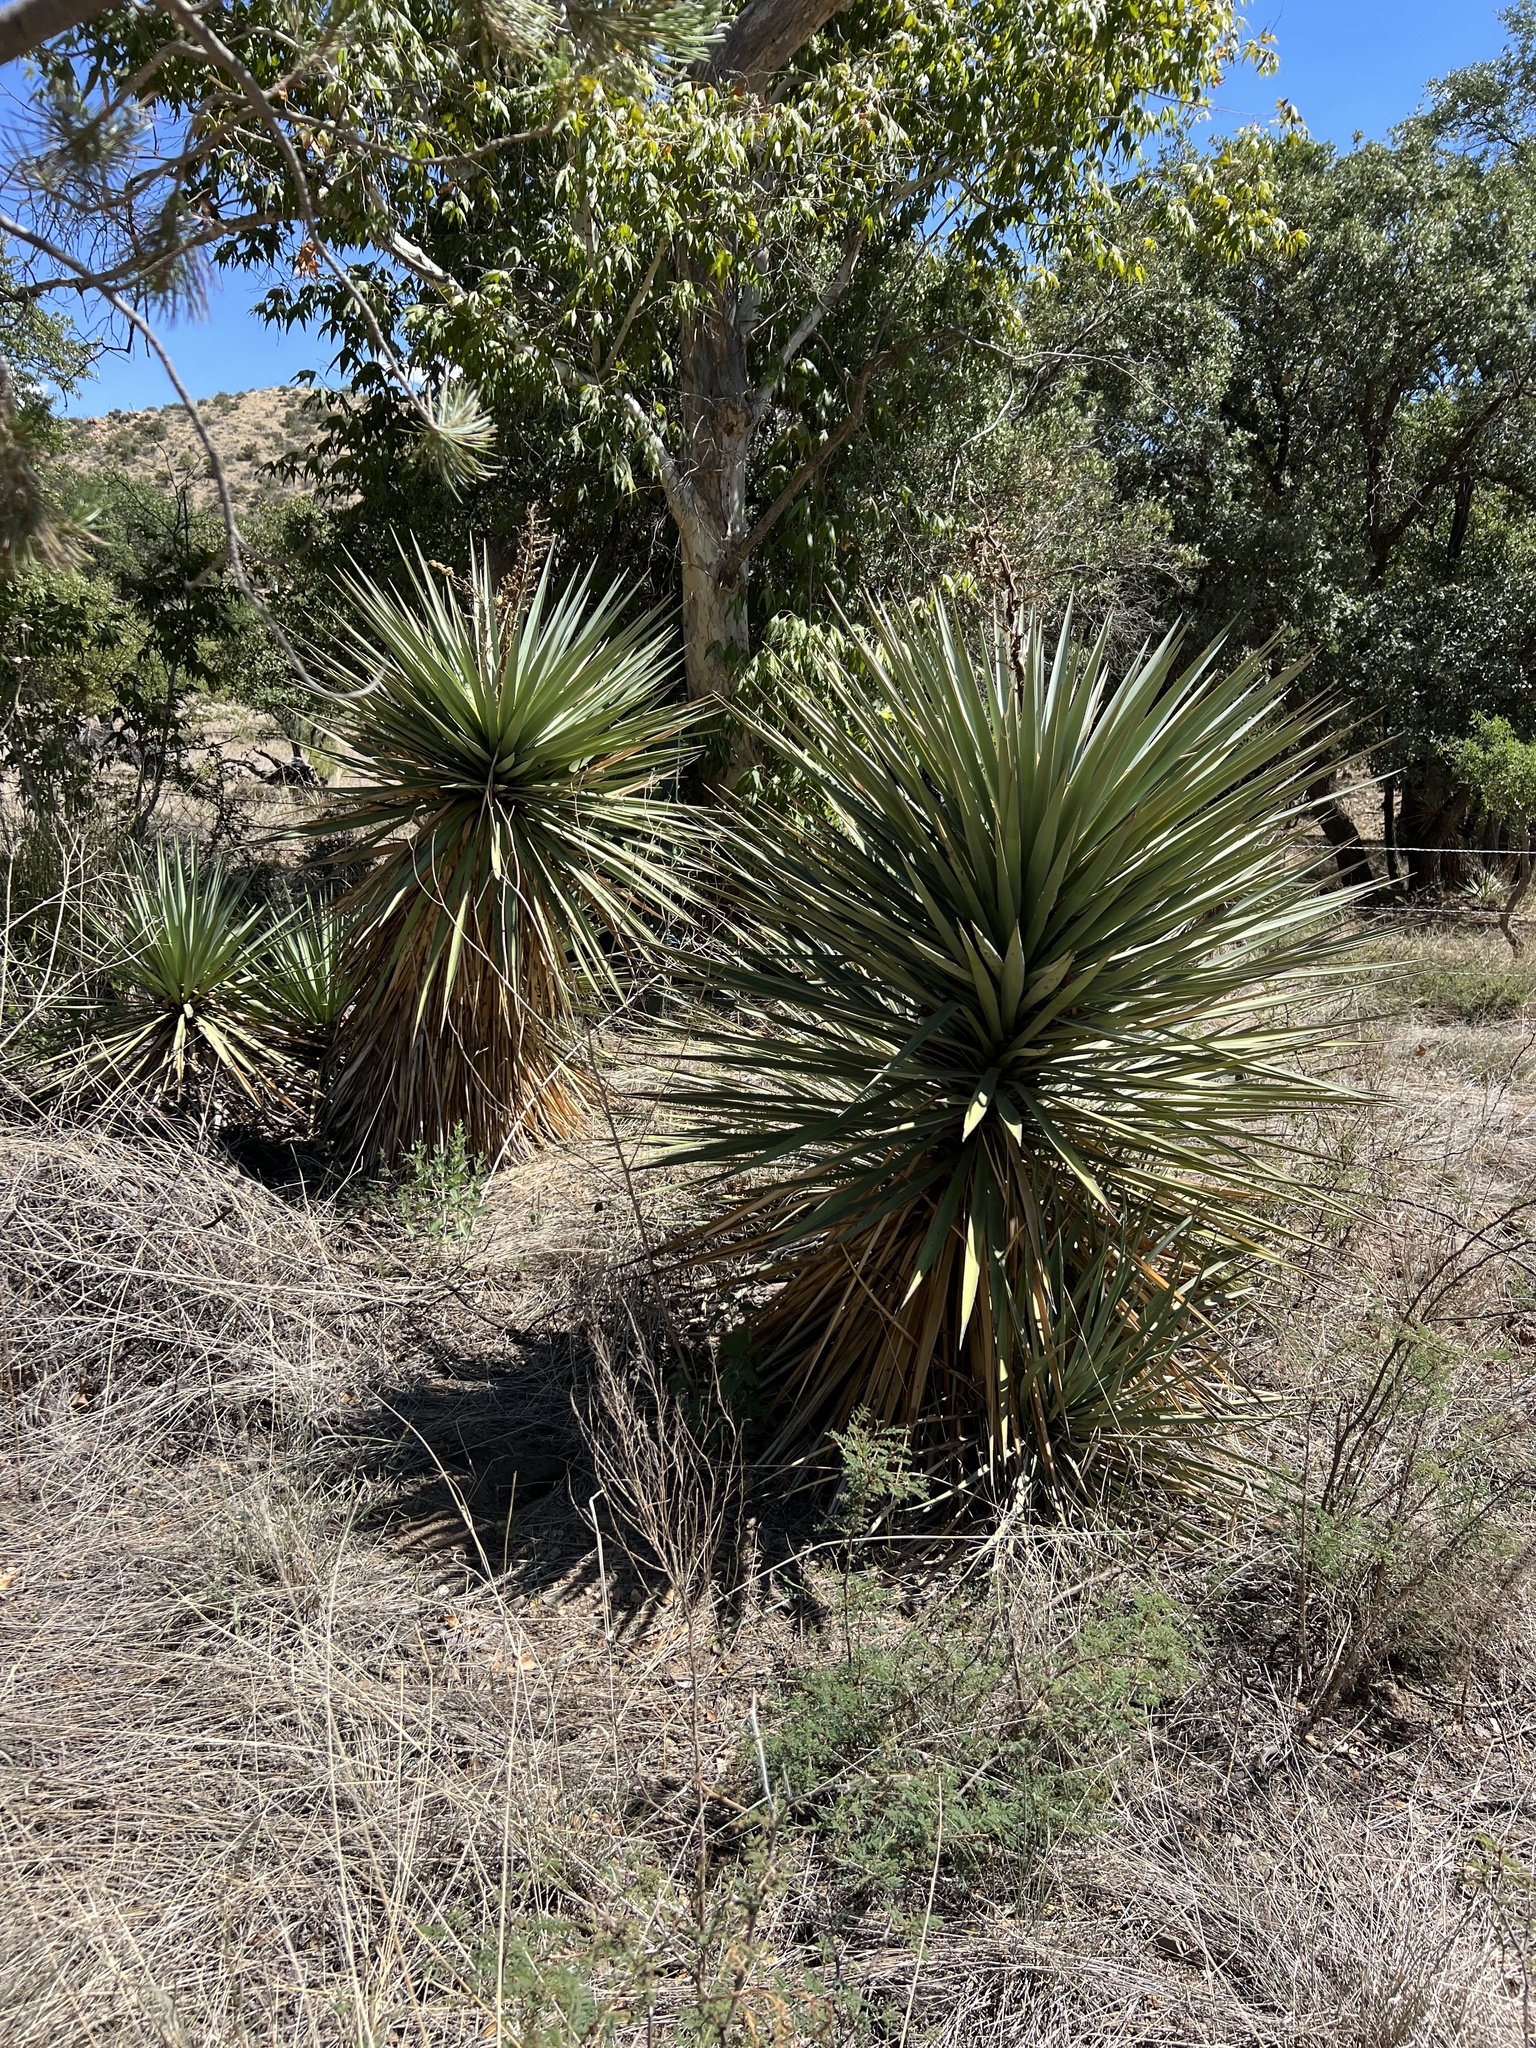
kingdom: Plantae
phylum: Tracheophyta
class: Liliopsida
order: Asparagales
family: Asparagaceae
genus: Yucca
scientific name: Yucca schottii
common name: Hoary yucca
